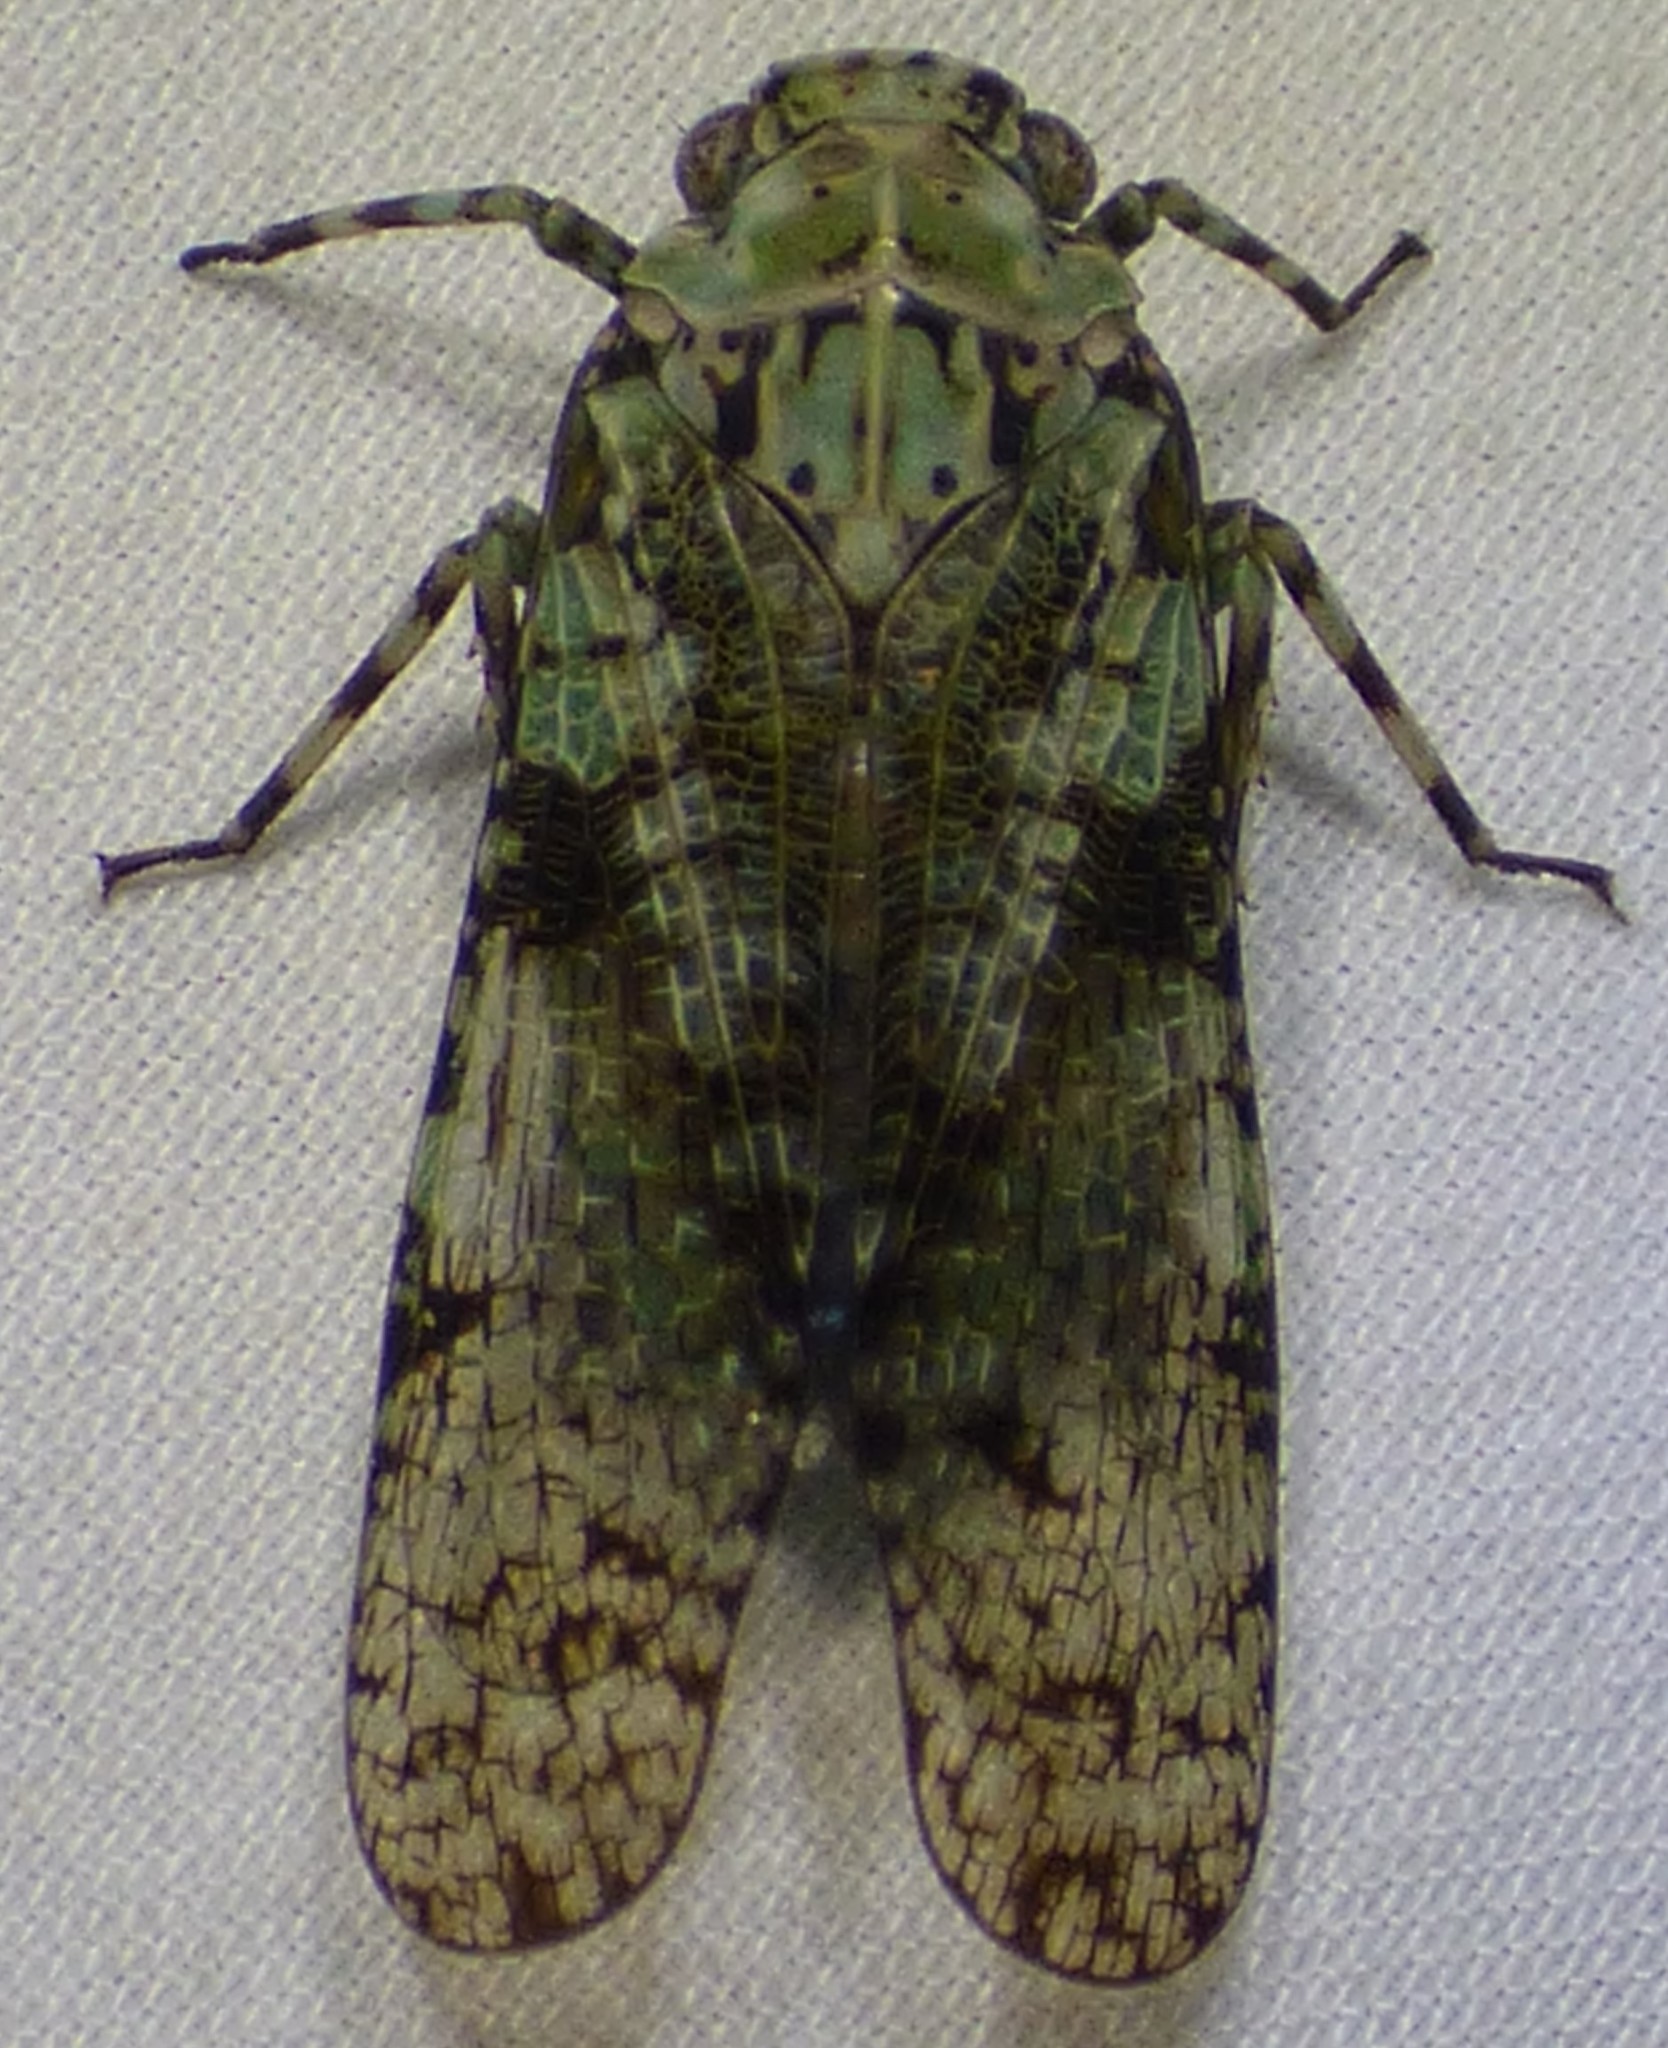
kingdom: Animalia
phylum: Arthropoda
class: Insecta
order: Hemiptera
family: Fulgoridae
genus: Calyptoproctus
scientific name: Calyptoproctus marmoratus
